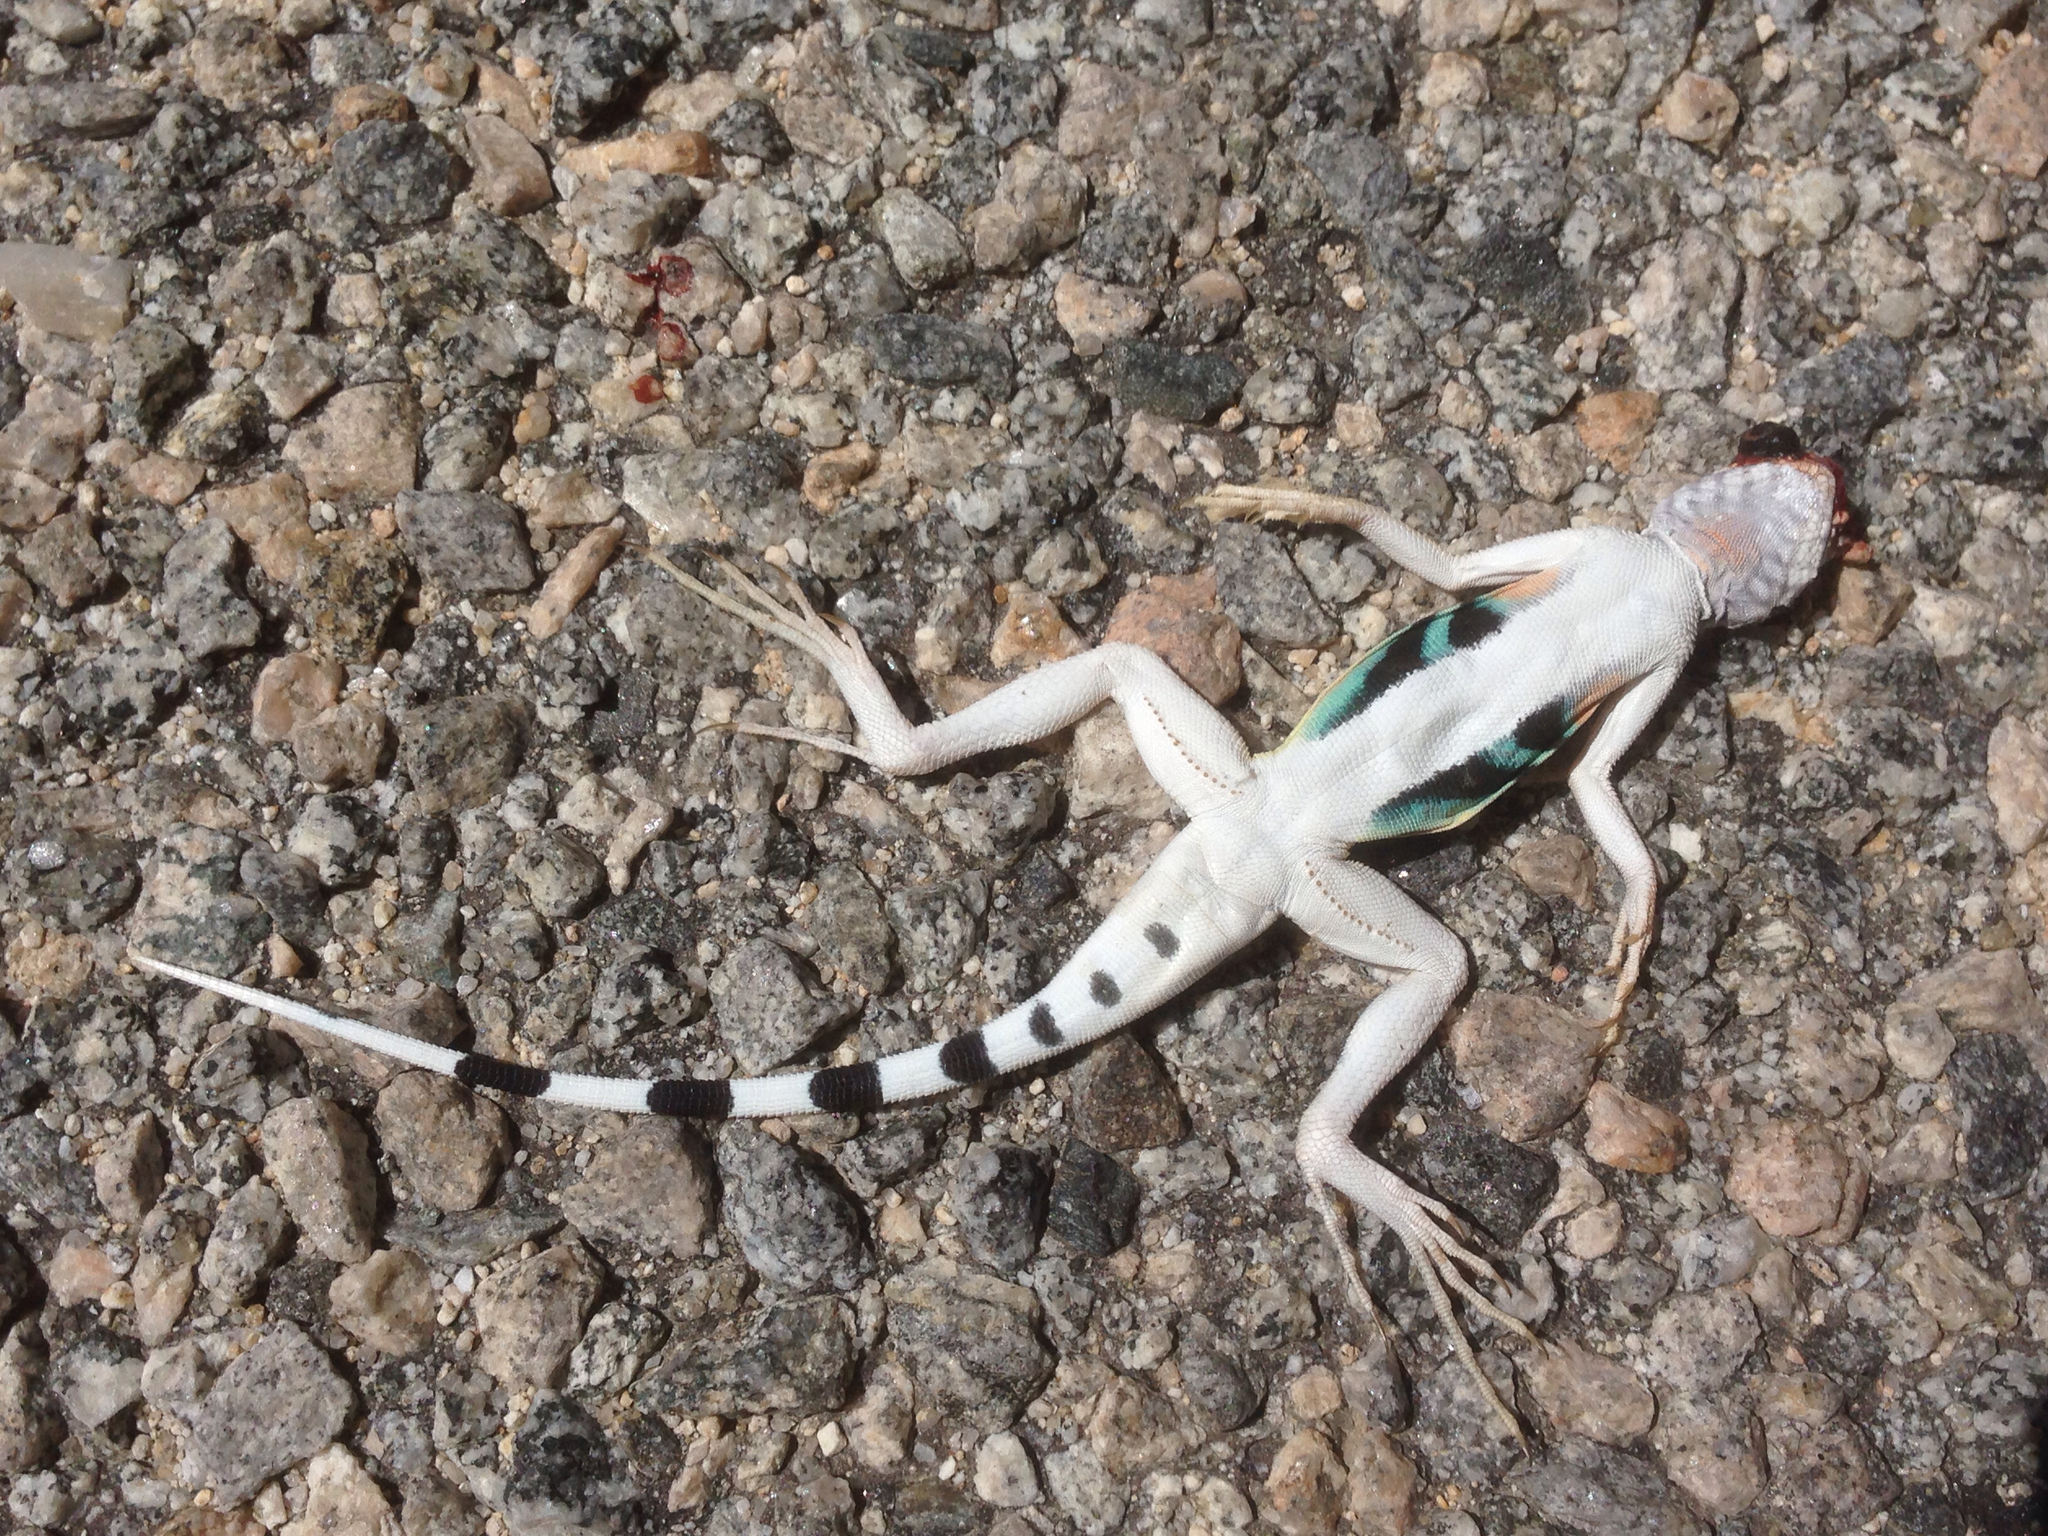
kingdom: Animalia
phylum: Chordata
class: Squamata
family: Phrynosomatidae
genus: Callisaurus
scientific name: Callisaurus draconoides
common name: Zebra-tailed lizard
